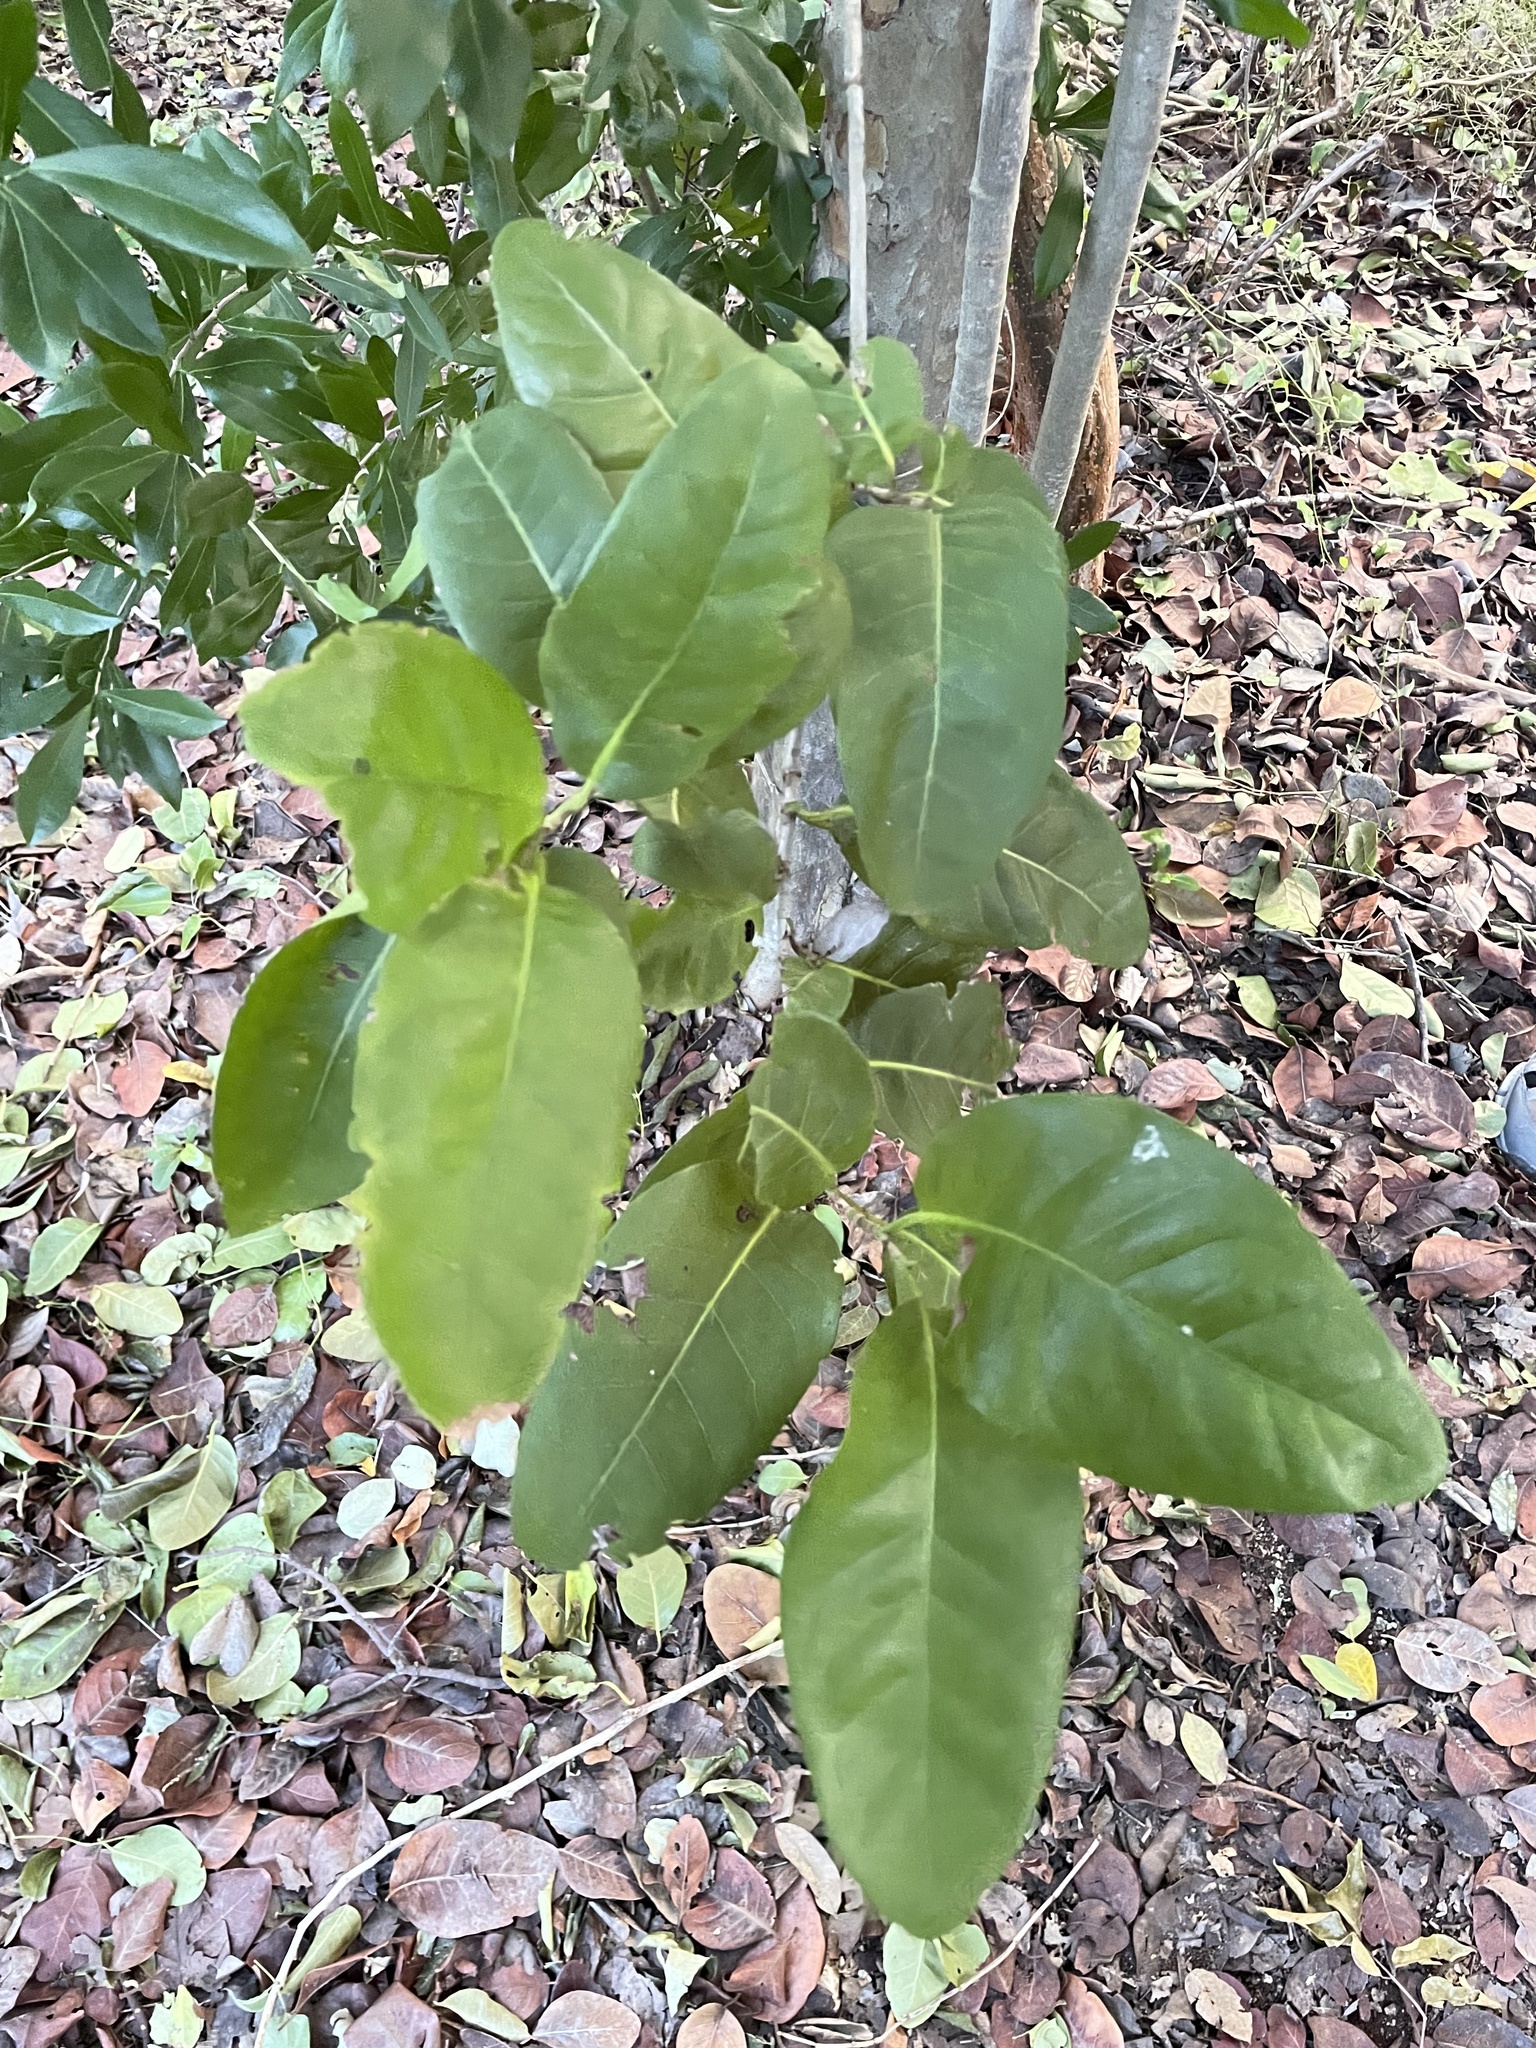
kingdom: Plantae
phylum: Tracheophyta
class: Magnoliopsida
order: Caryophyllales
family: Polygonaceae
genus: Coccoloba
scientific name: Coccoloba diversifolia
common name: Pigeon-plum
